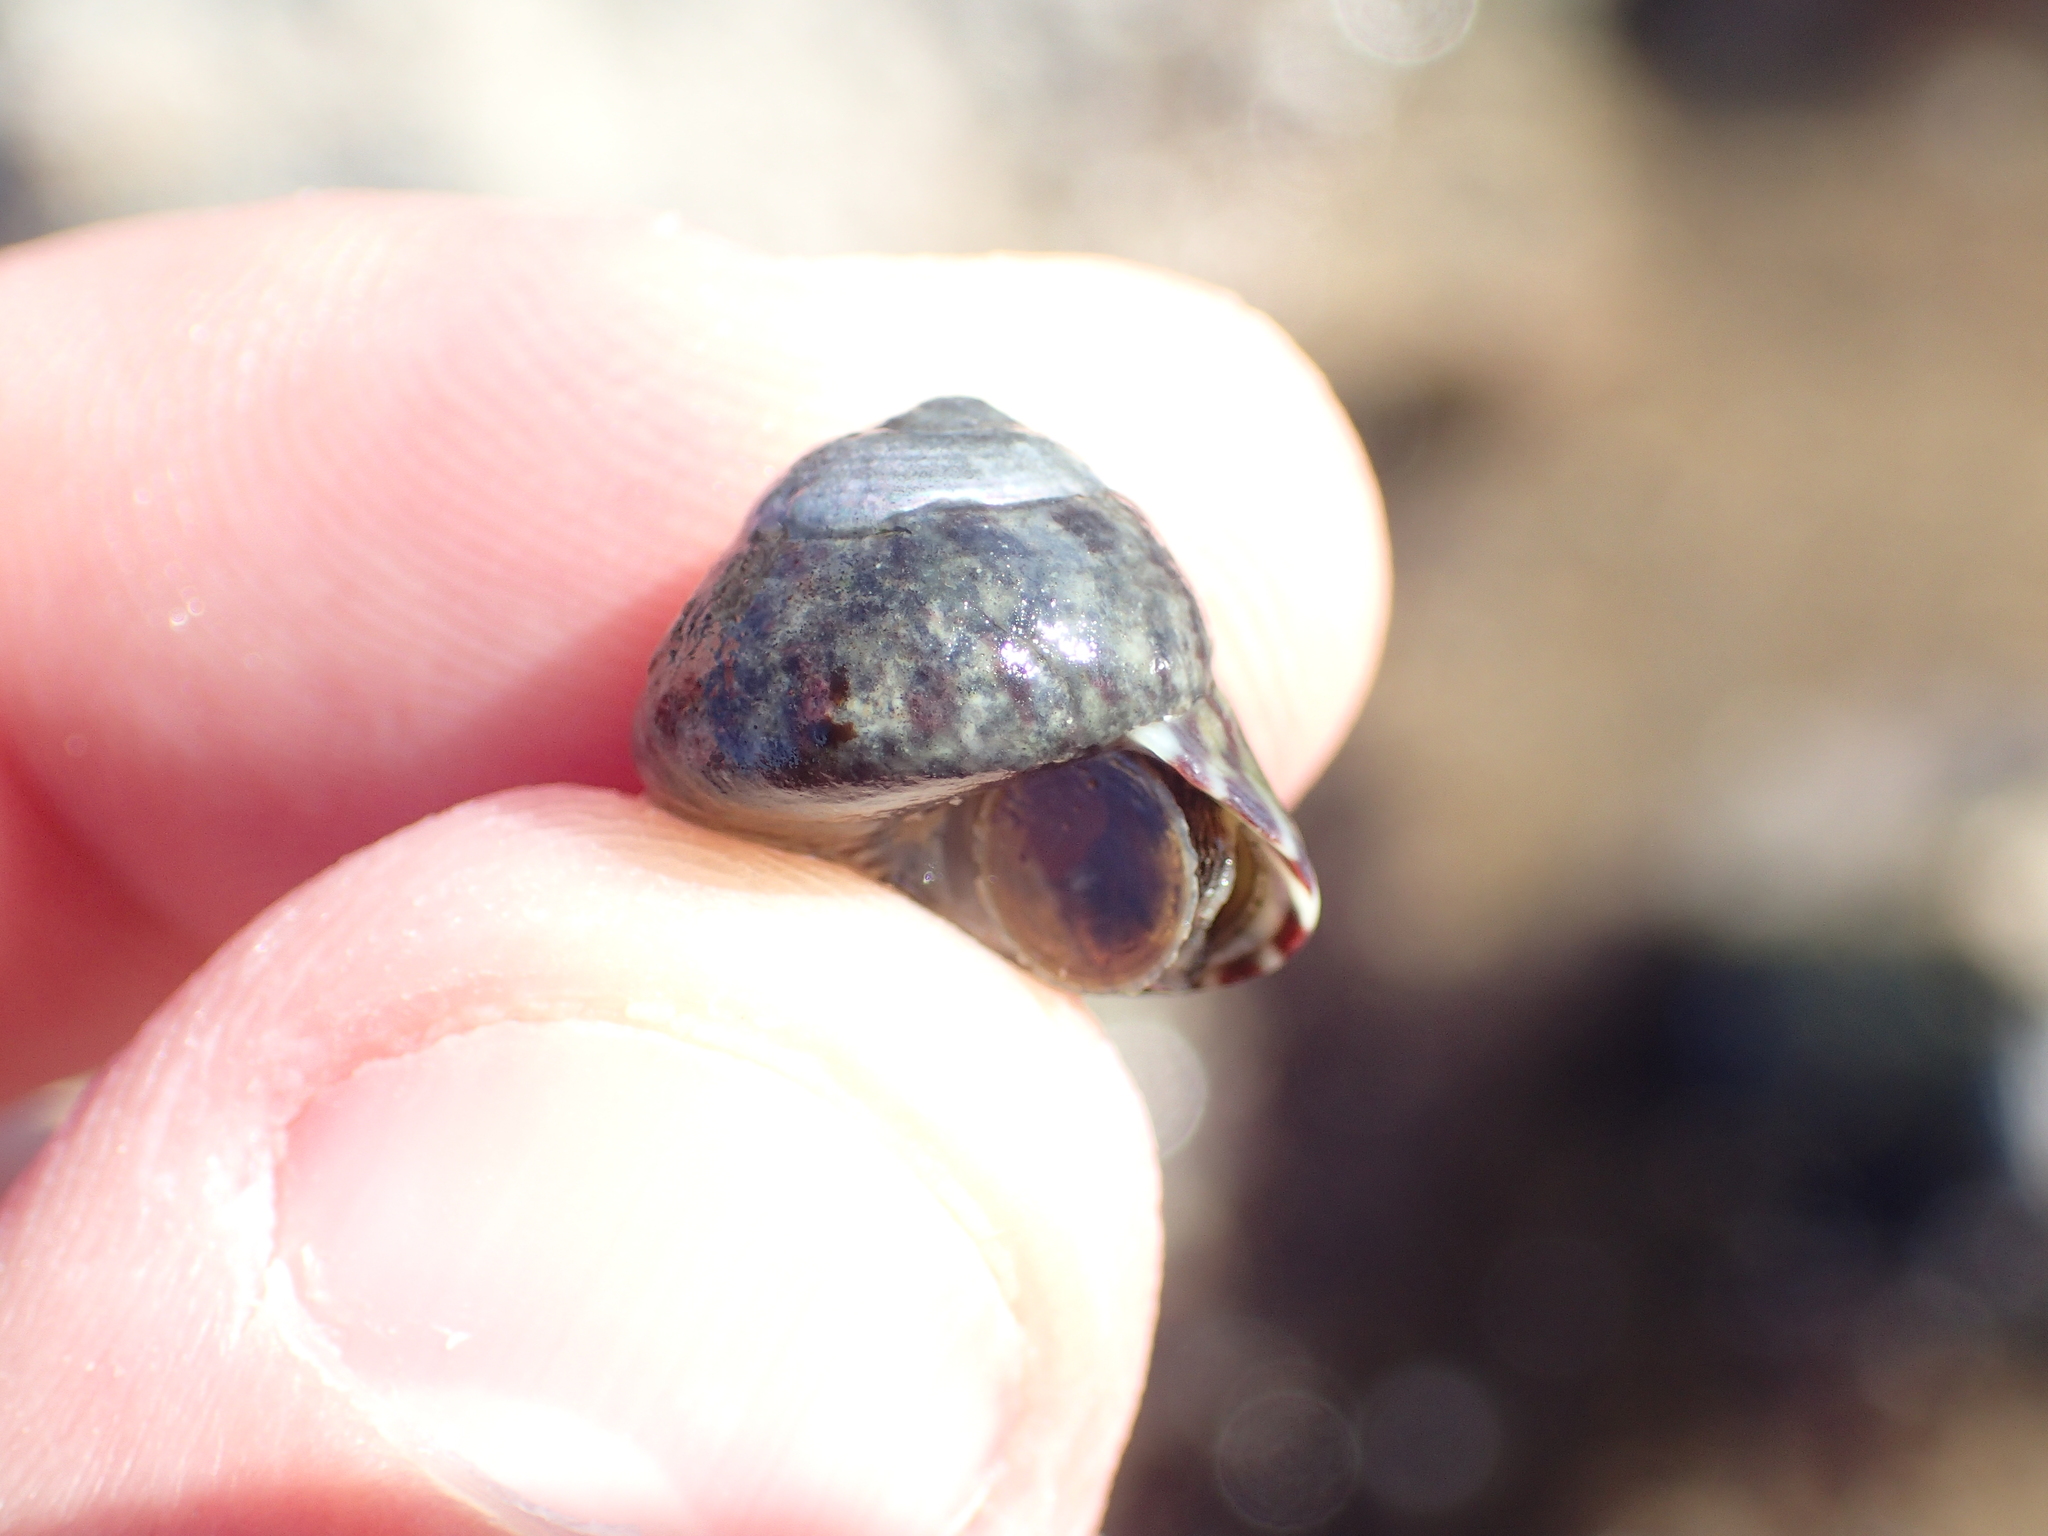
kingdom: Animalia
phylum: Mollusca
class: Gastropoda
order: Trochida
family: Trochidae
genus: Steromphala
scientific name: Steromphala pennanti
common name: Pennant's top shell
